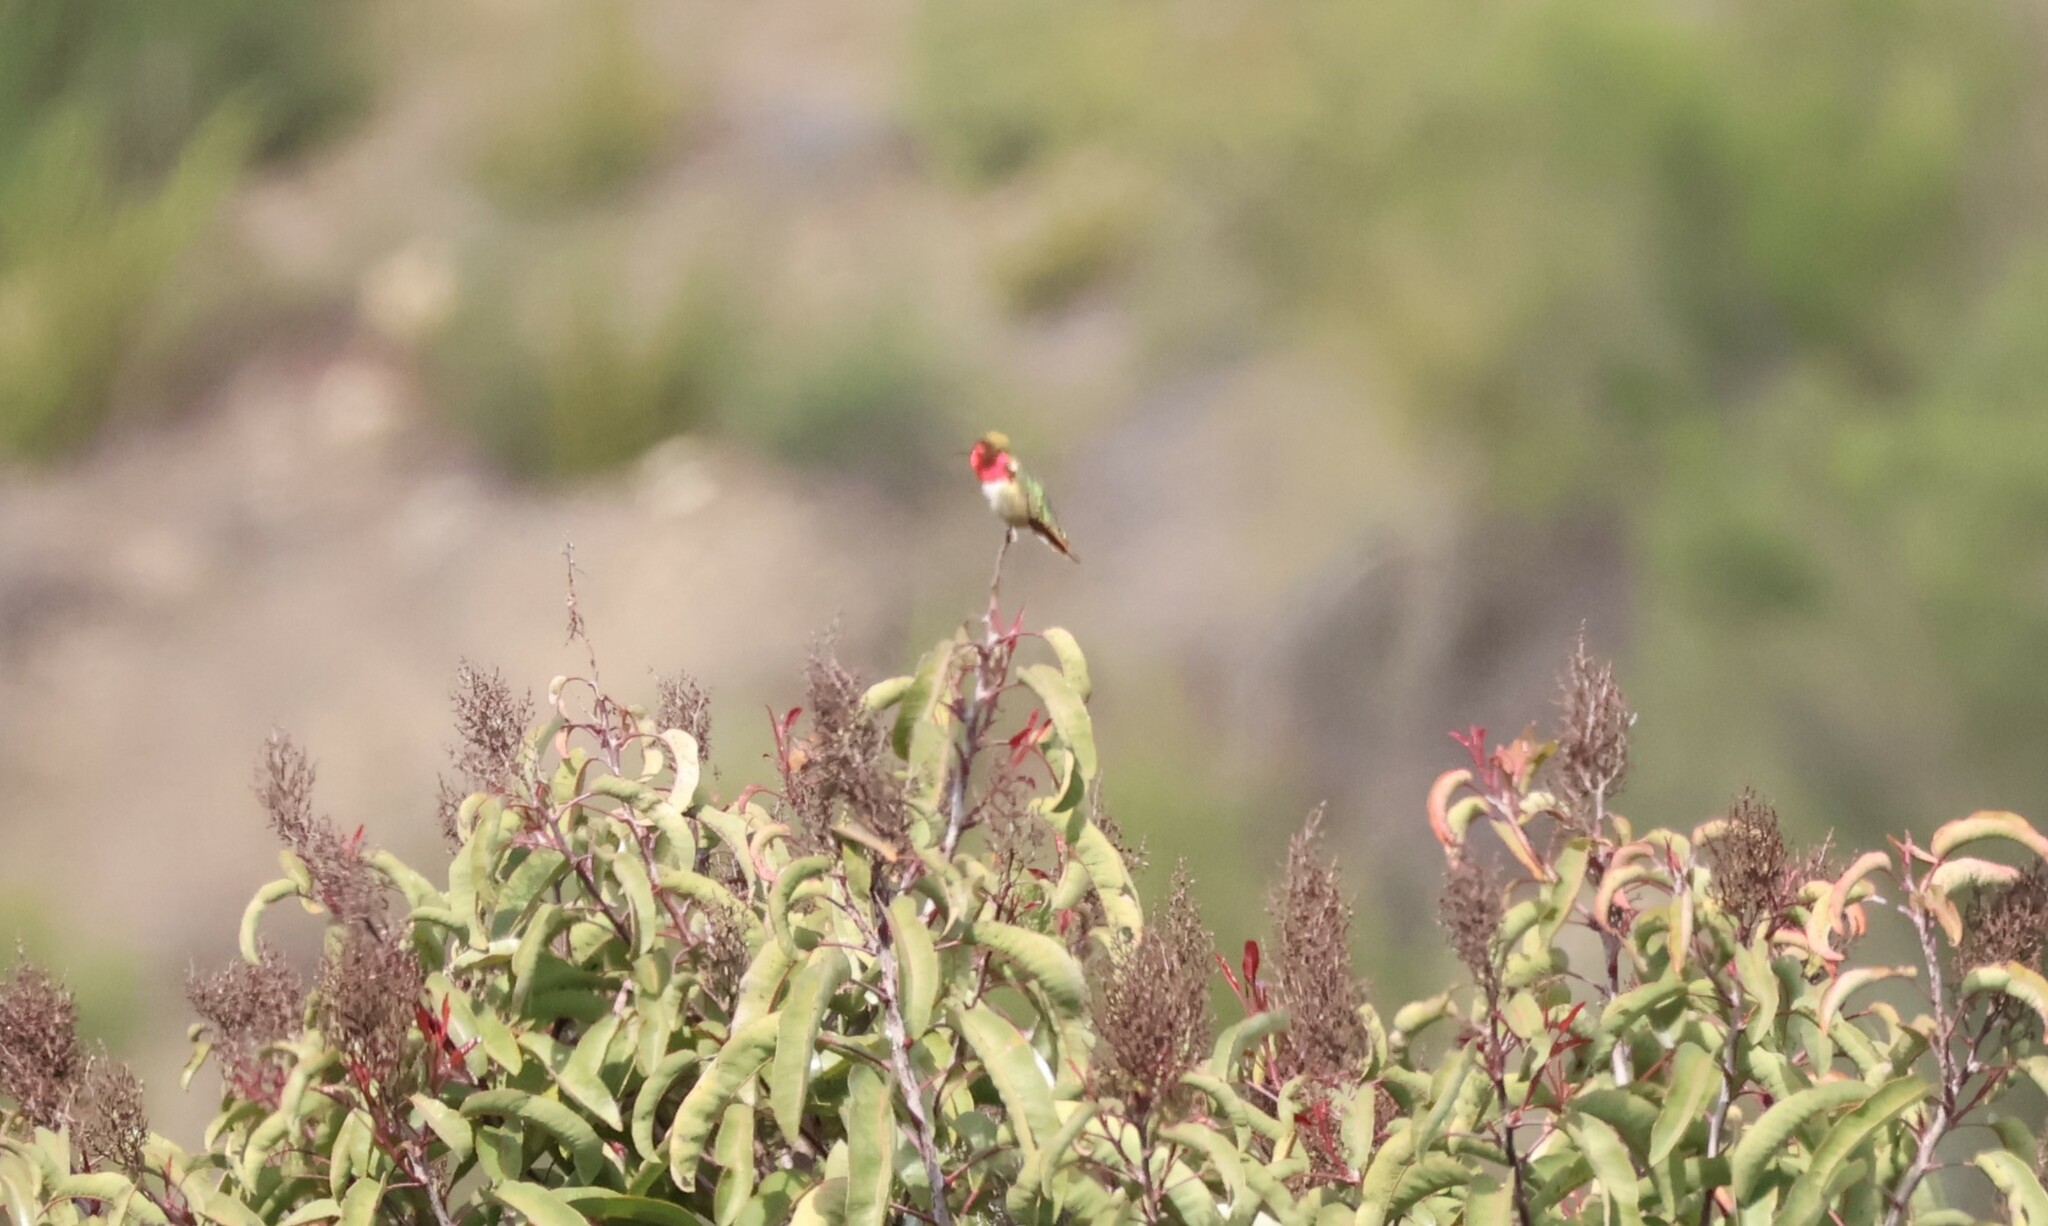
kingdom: Animalia
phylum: Chordata
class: Aves
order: Apodiformes
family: Trochilidae
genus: Calypte
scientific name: Calypte anna
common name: Anna's hummingbird
